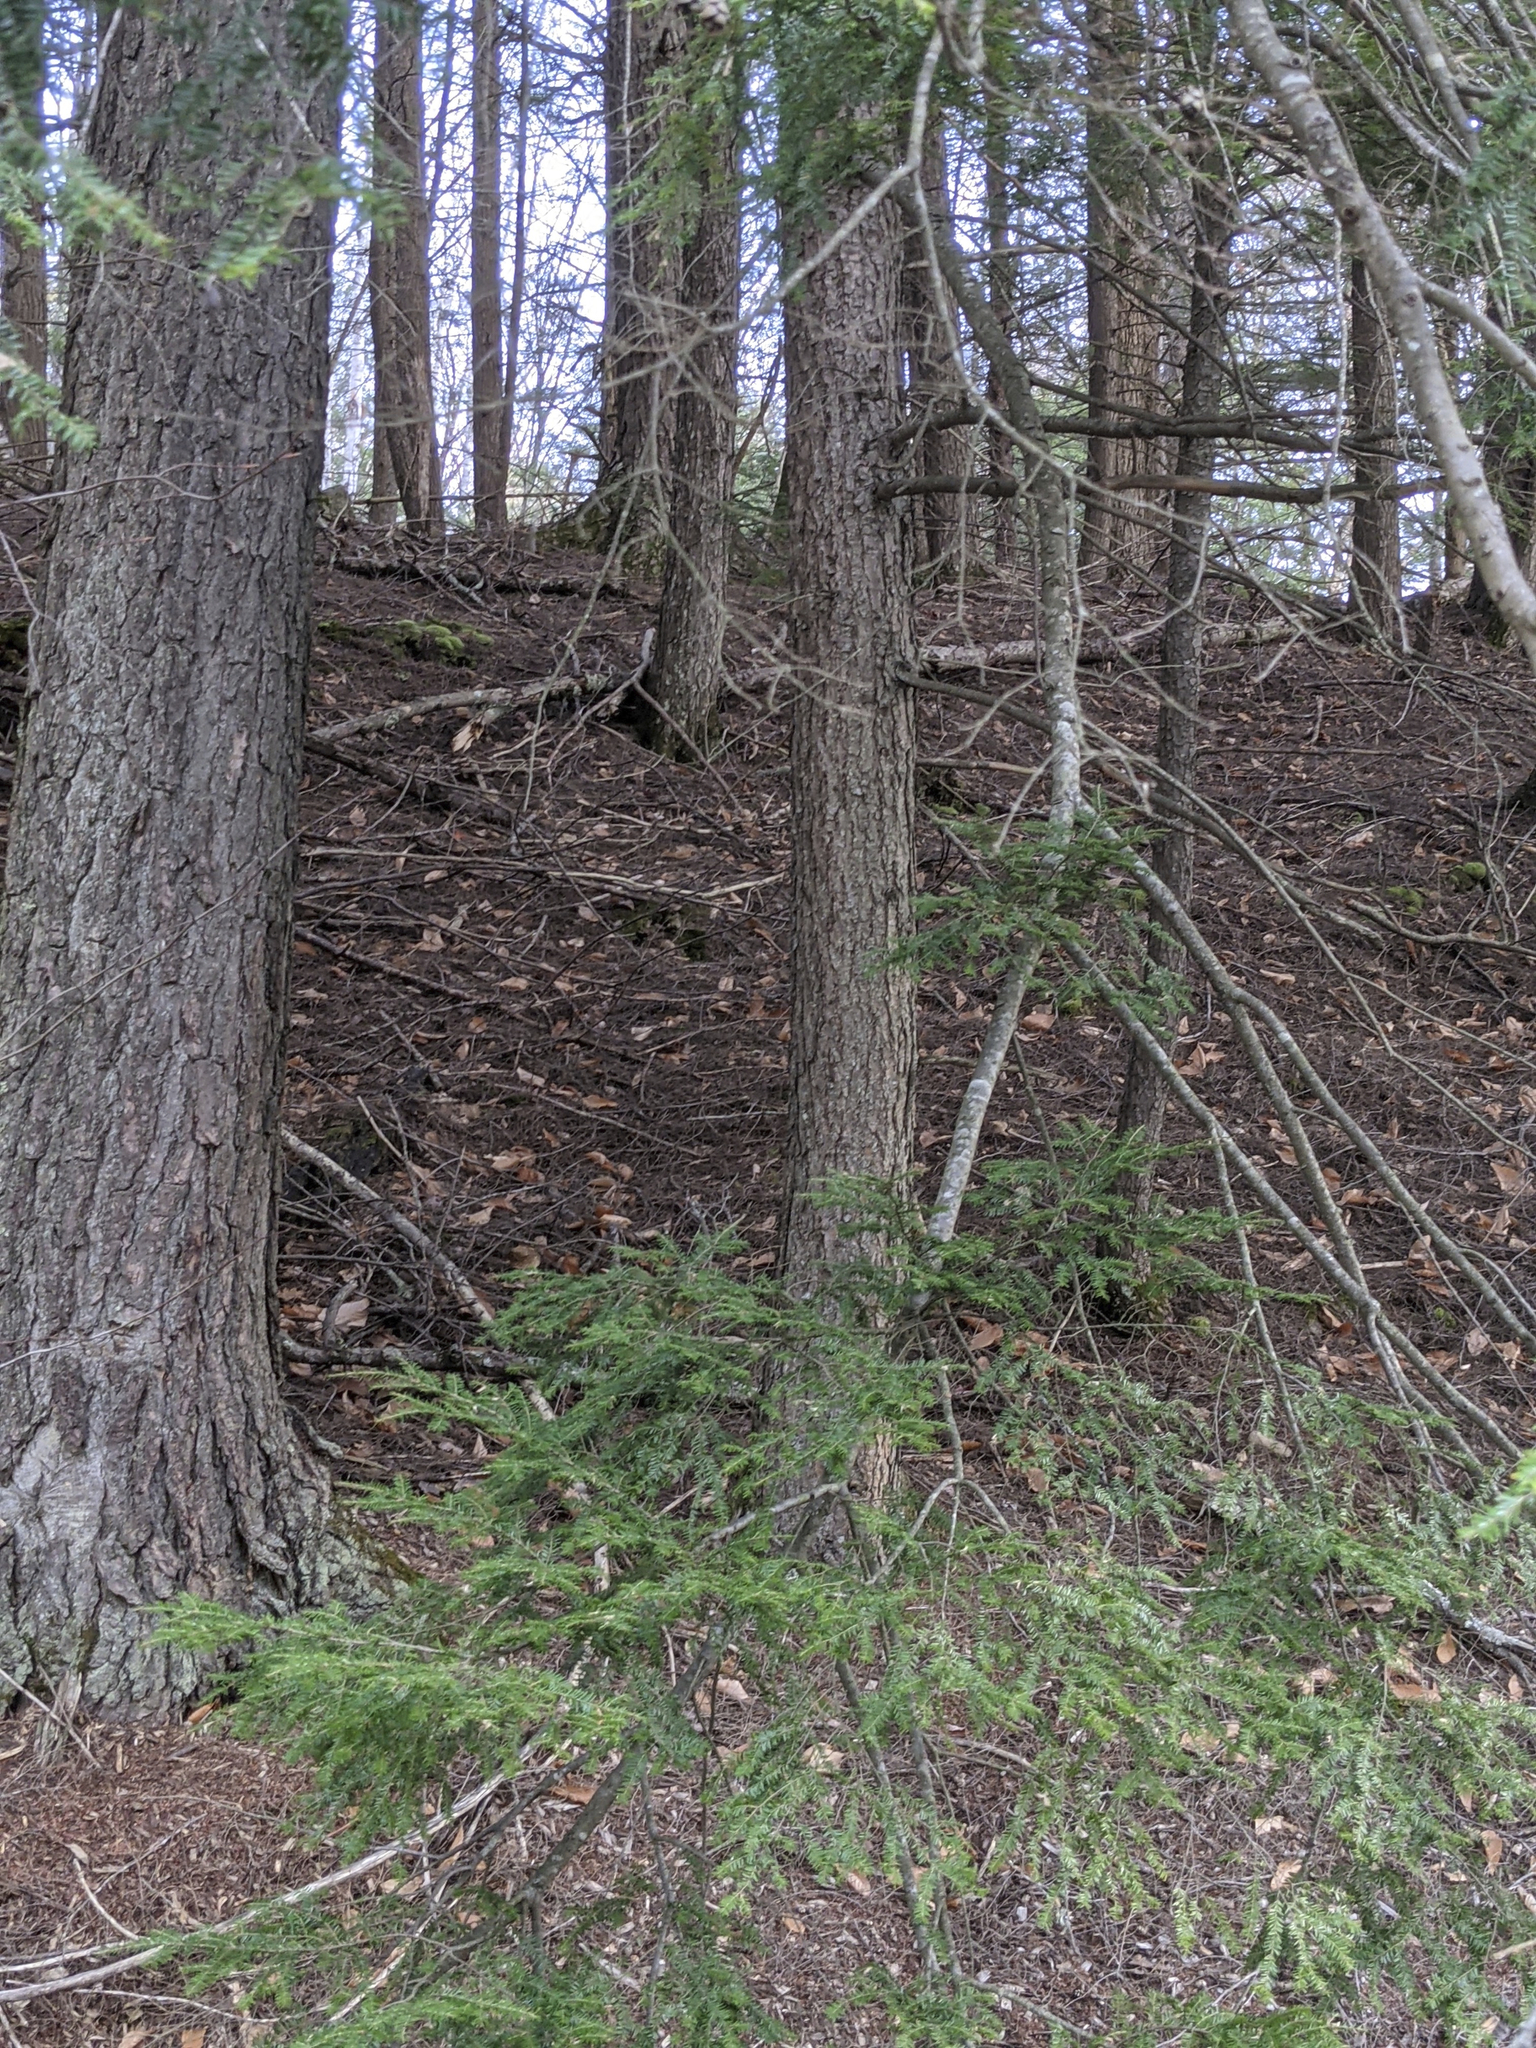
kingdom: Plantae
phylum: Tracheophyta
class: Pinopsida
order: Pinales
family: Pinaceae
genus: Tsuga
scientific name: Tsuga canadensis
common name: Eastern hemlock
